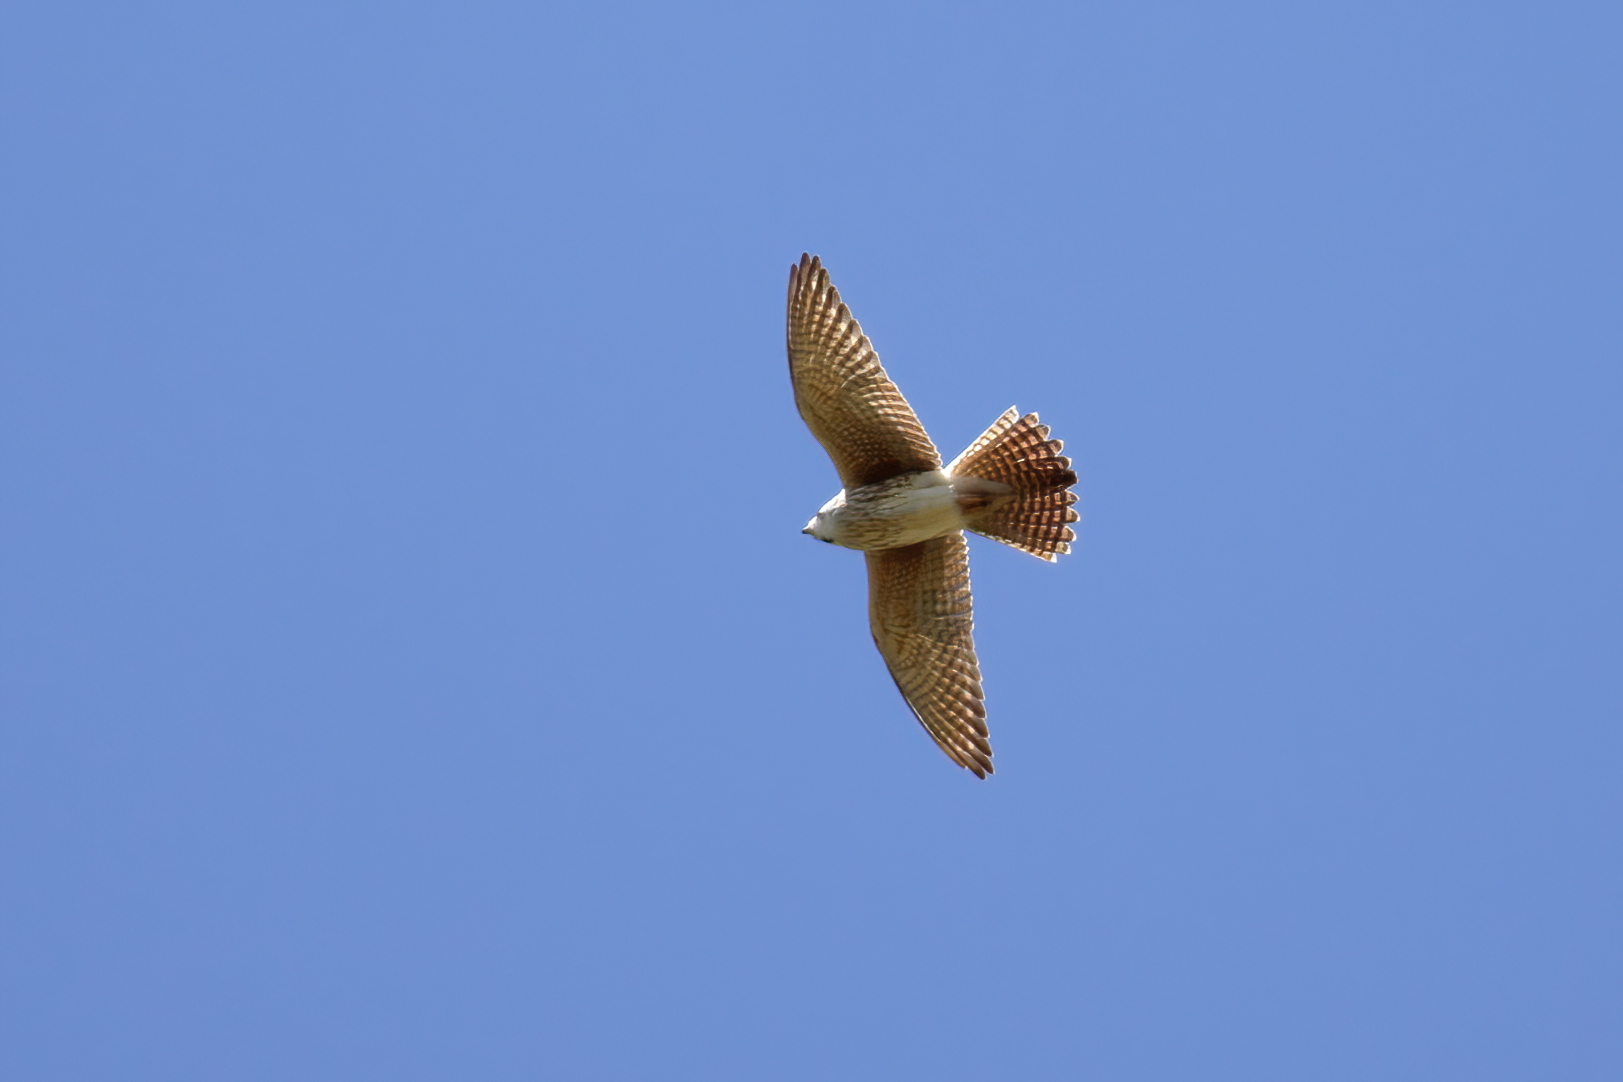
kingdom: Animalia
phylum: Chordata
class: Aves
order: Falconiformes
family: Falconidae
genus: Falco
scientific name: Falco sparverius
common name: American kestrel
